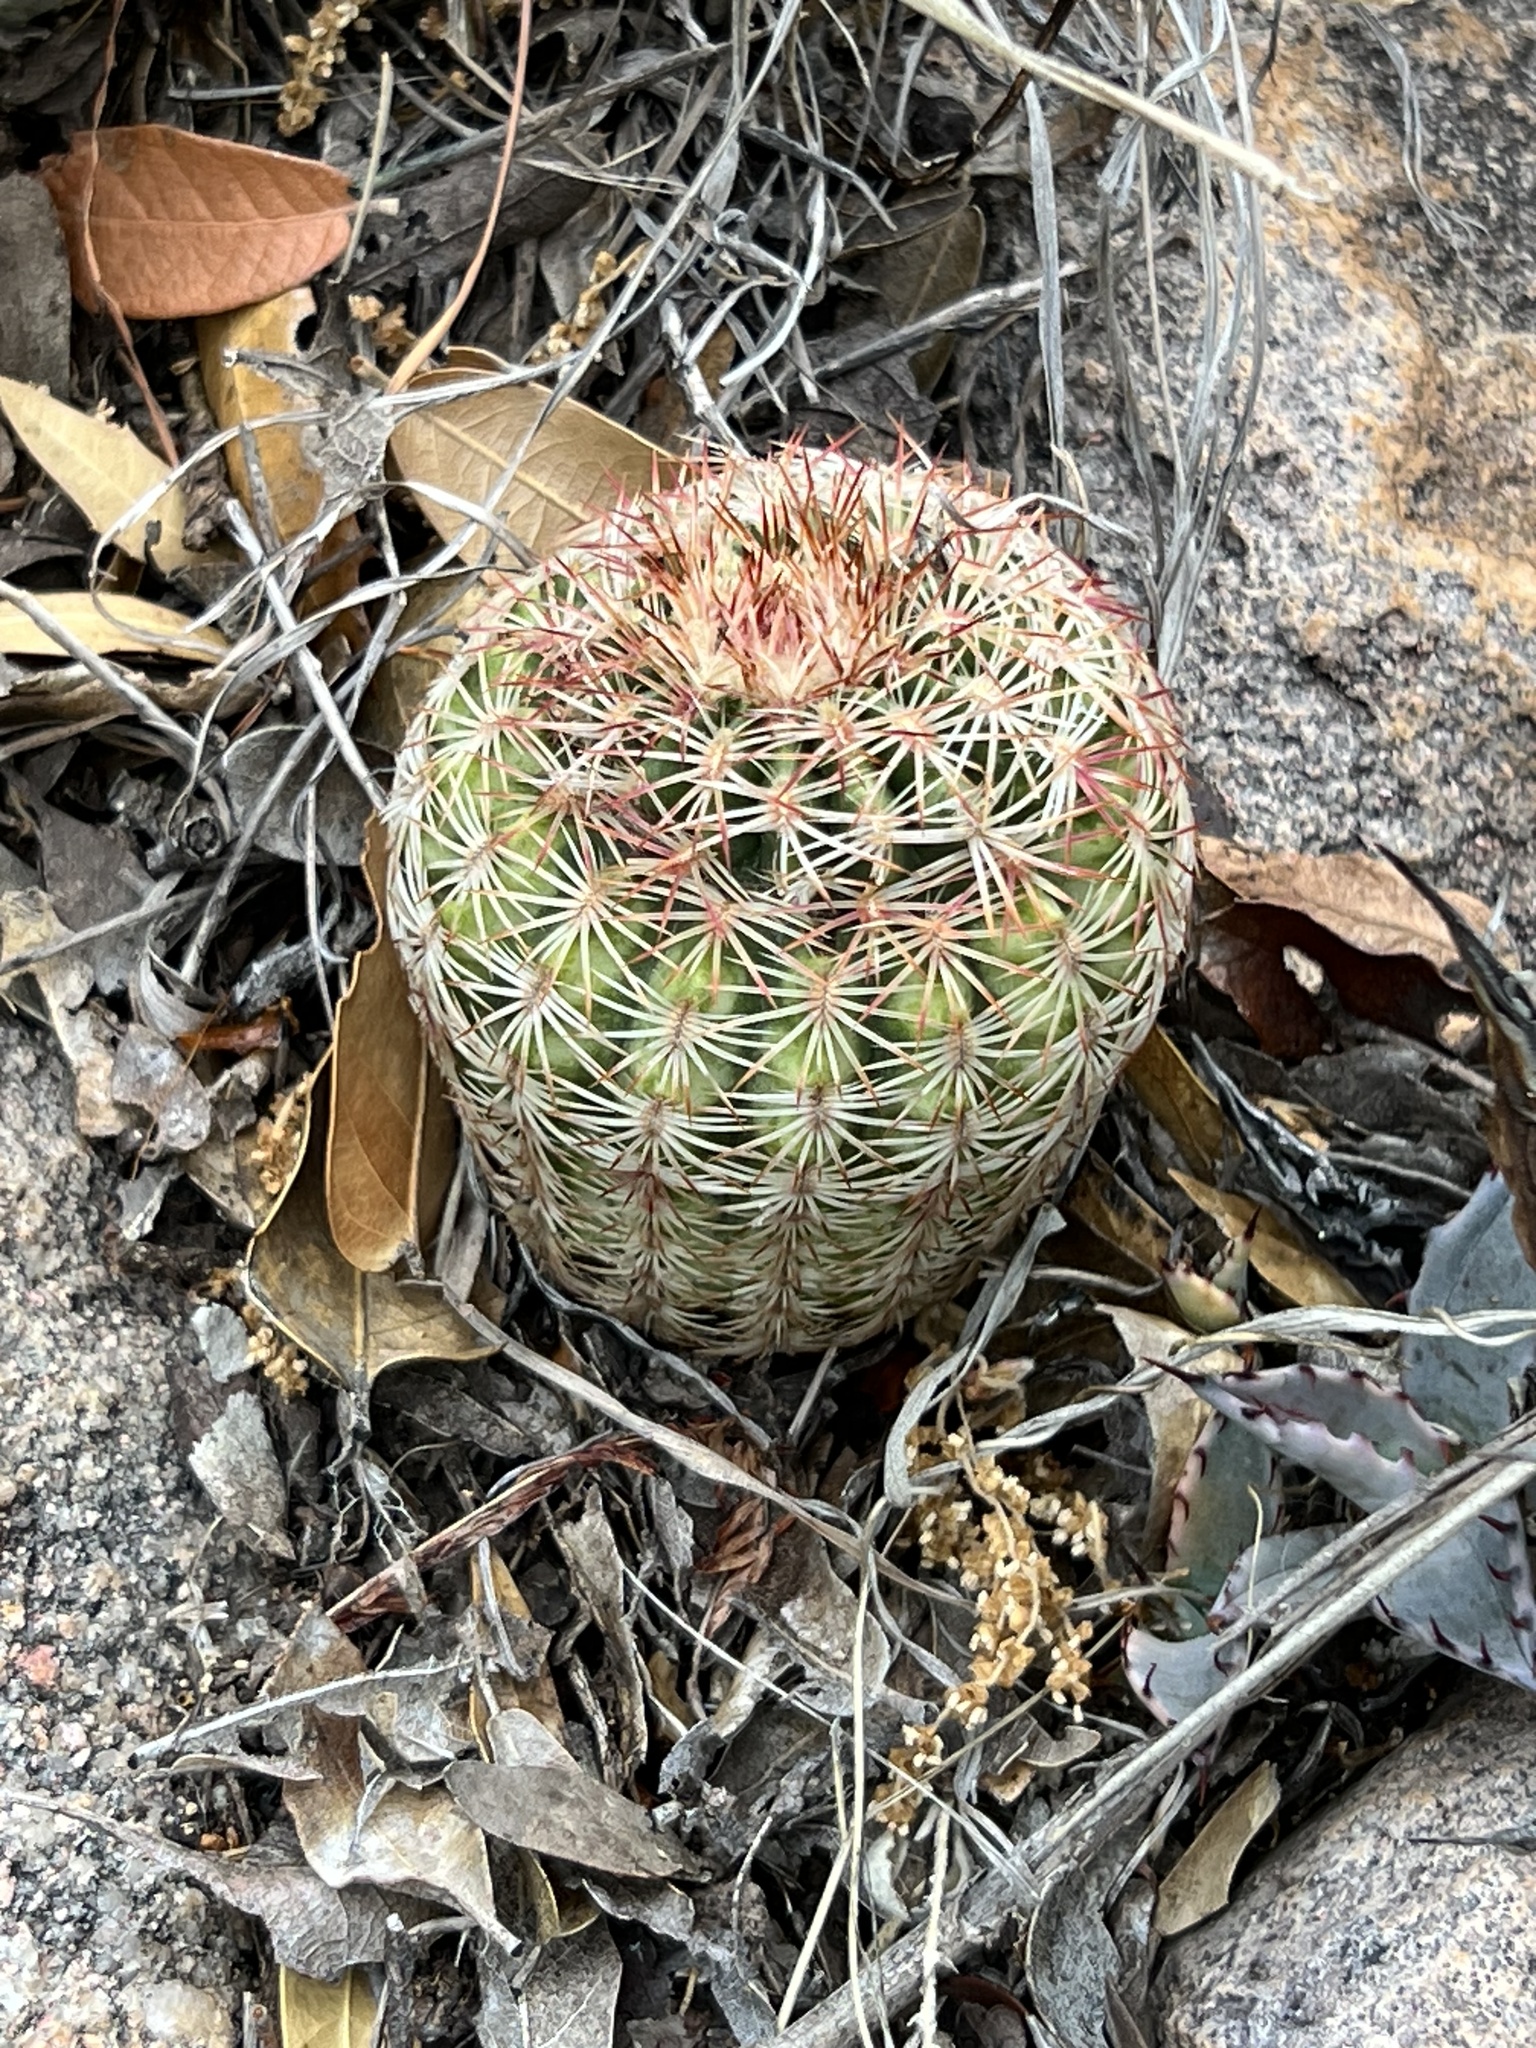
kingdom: Plantae
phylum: Tracheophyta
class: Magnoliopsida
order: Caryophyllales
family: Cactaceae
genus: Echinocereus
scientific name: Echinocereus rigidissimus
